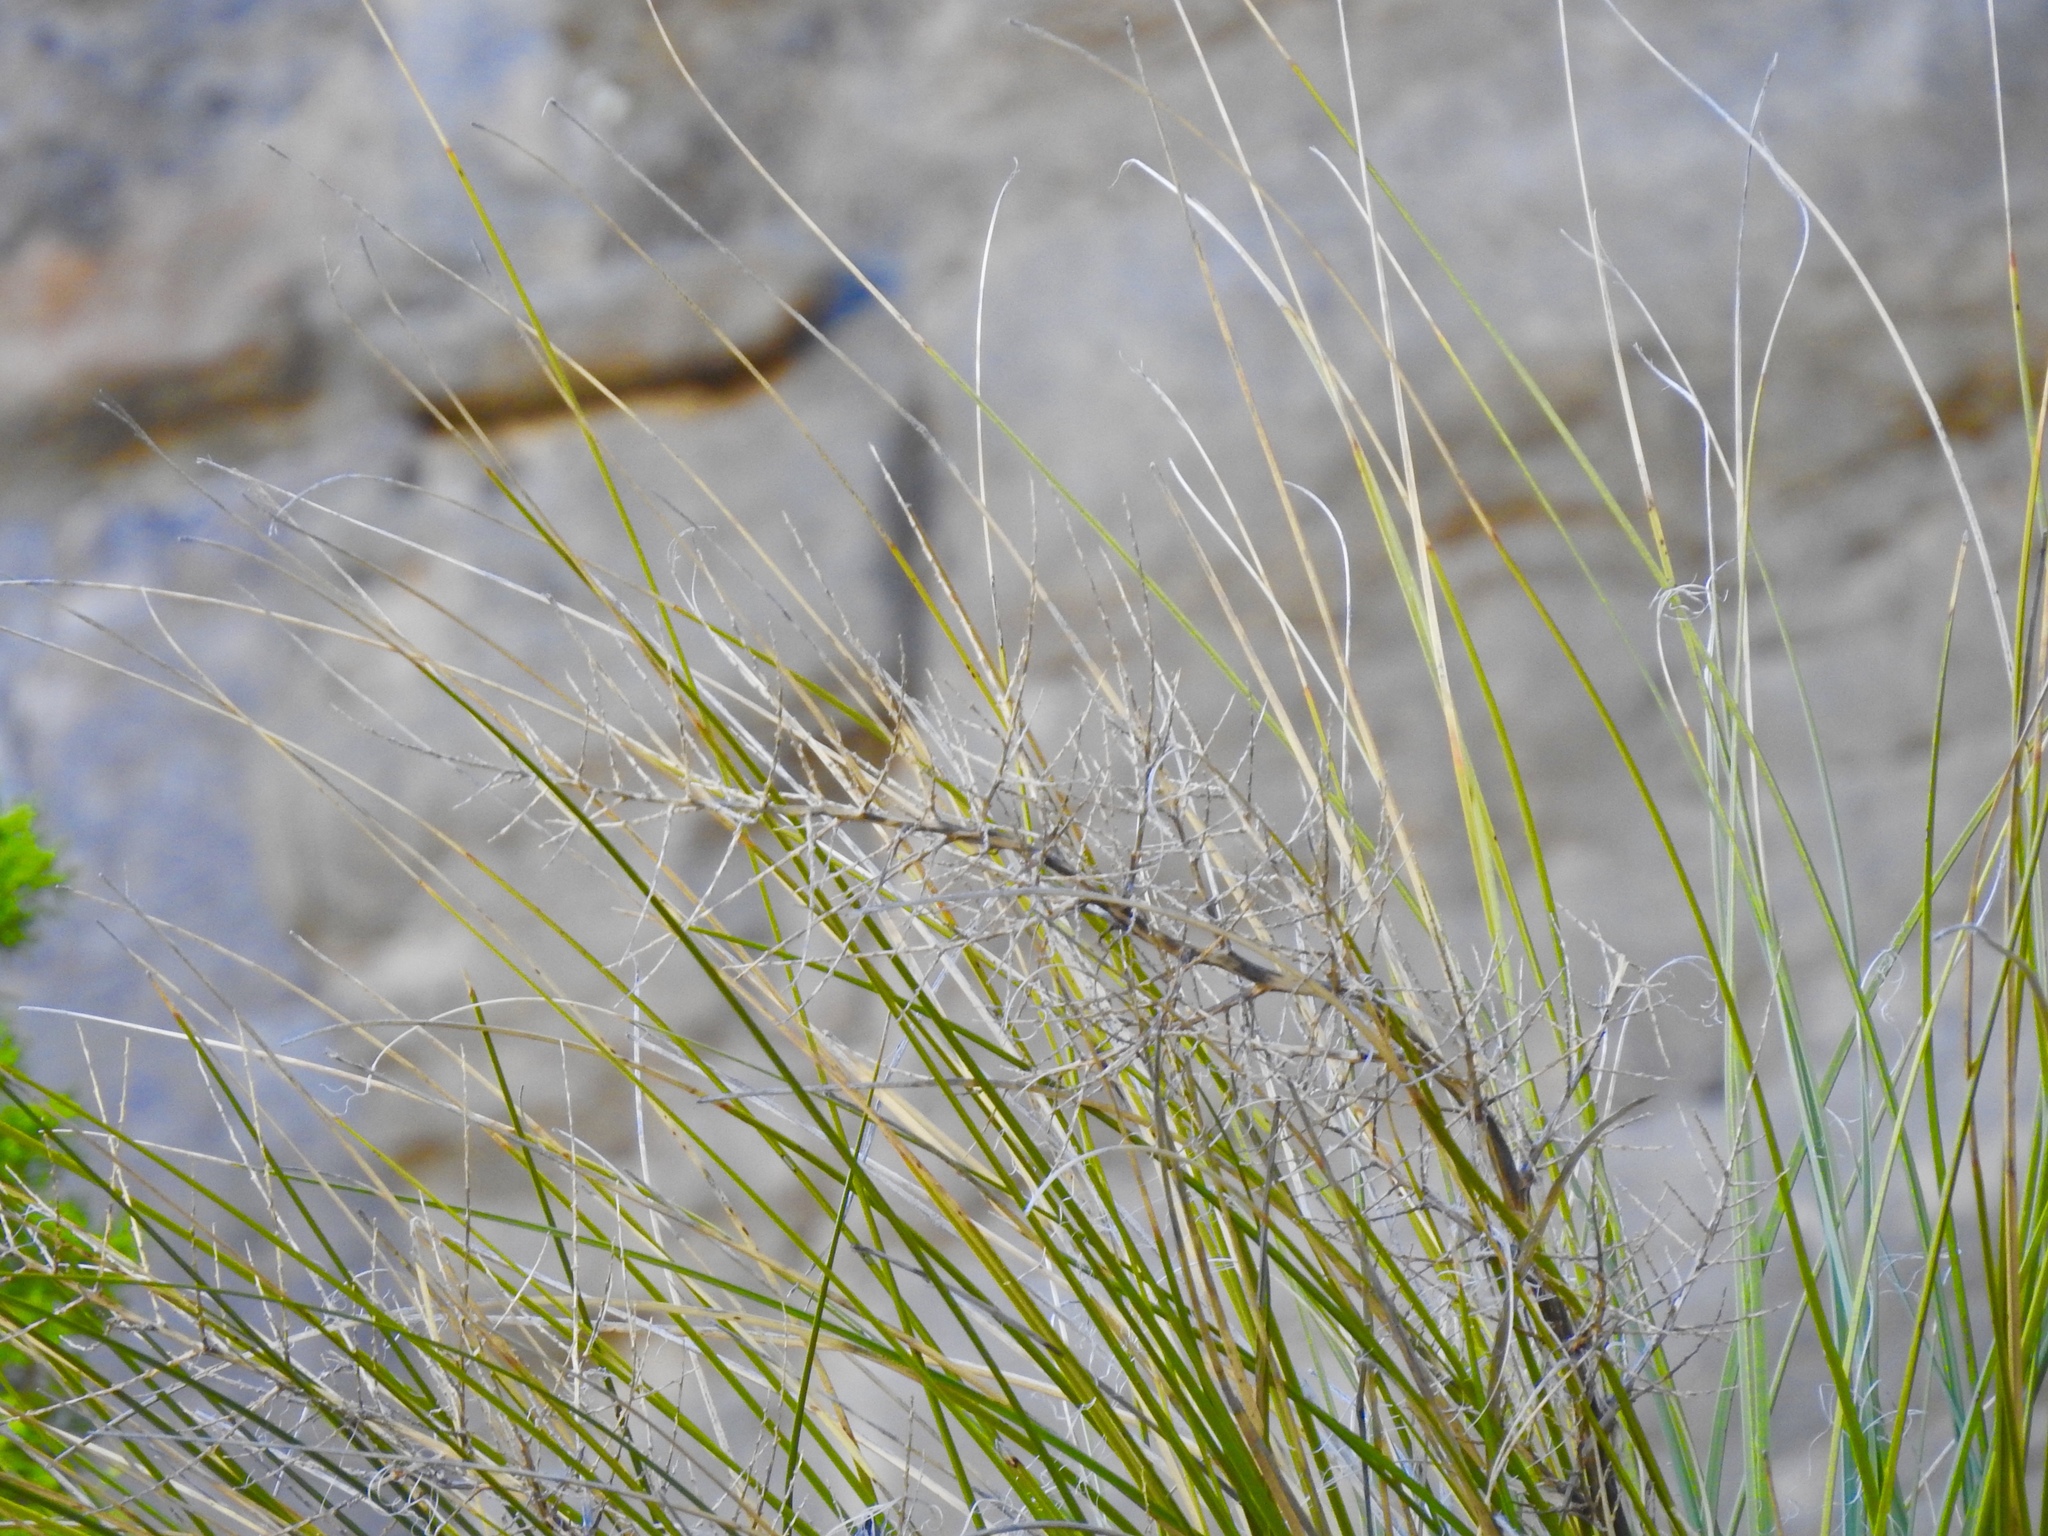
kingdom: Plantae
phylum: Tracheophyta
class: Liliopsida
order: Asparagales
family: Asparagaceae
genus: Nolina
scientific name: Nolina microcarpa
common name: Bear-grass
